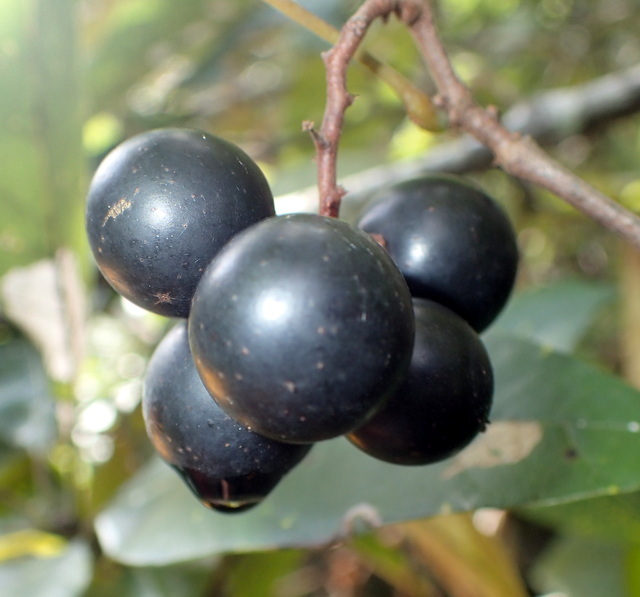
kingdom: Plantae
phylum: Tracheophyta
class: Magnoliopsida
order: Vitales
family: Vitaceae
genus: Vitis
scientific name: Vitis rotundifolia
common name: Muscadine grape
